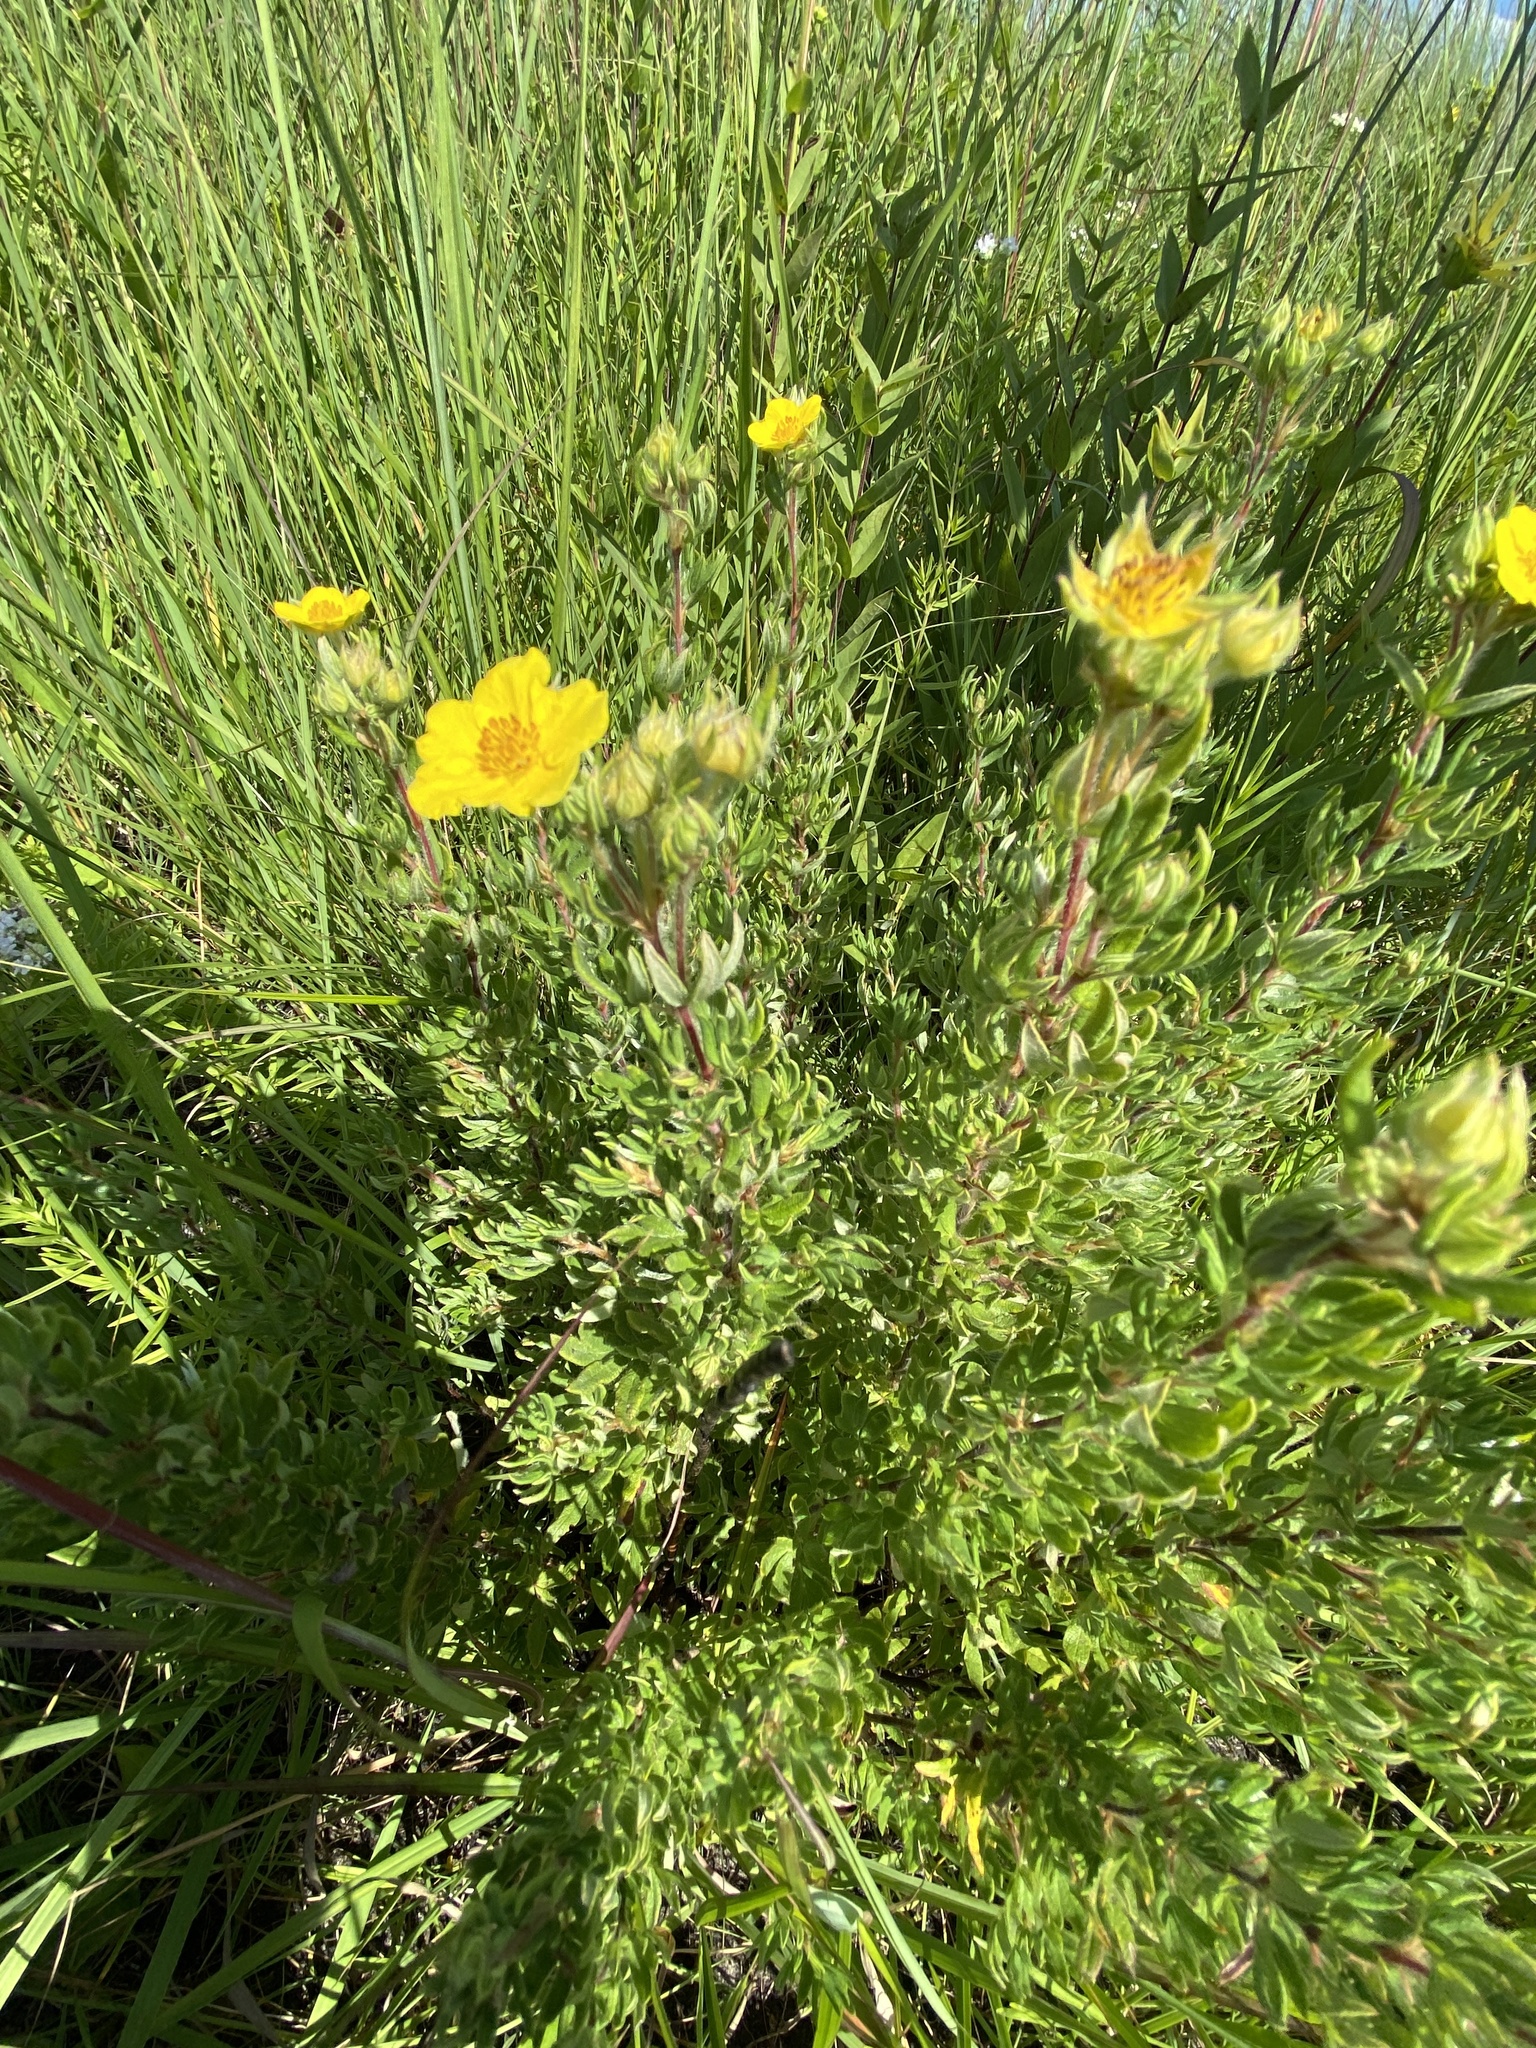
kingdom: Plantae
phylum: Tracheophyta
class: Magnoliopsida
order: Rosales
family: Rosaceae
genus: Dasiphora
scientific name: Dasiphora fruticosa
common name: Shrubby cinquefoil
